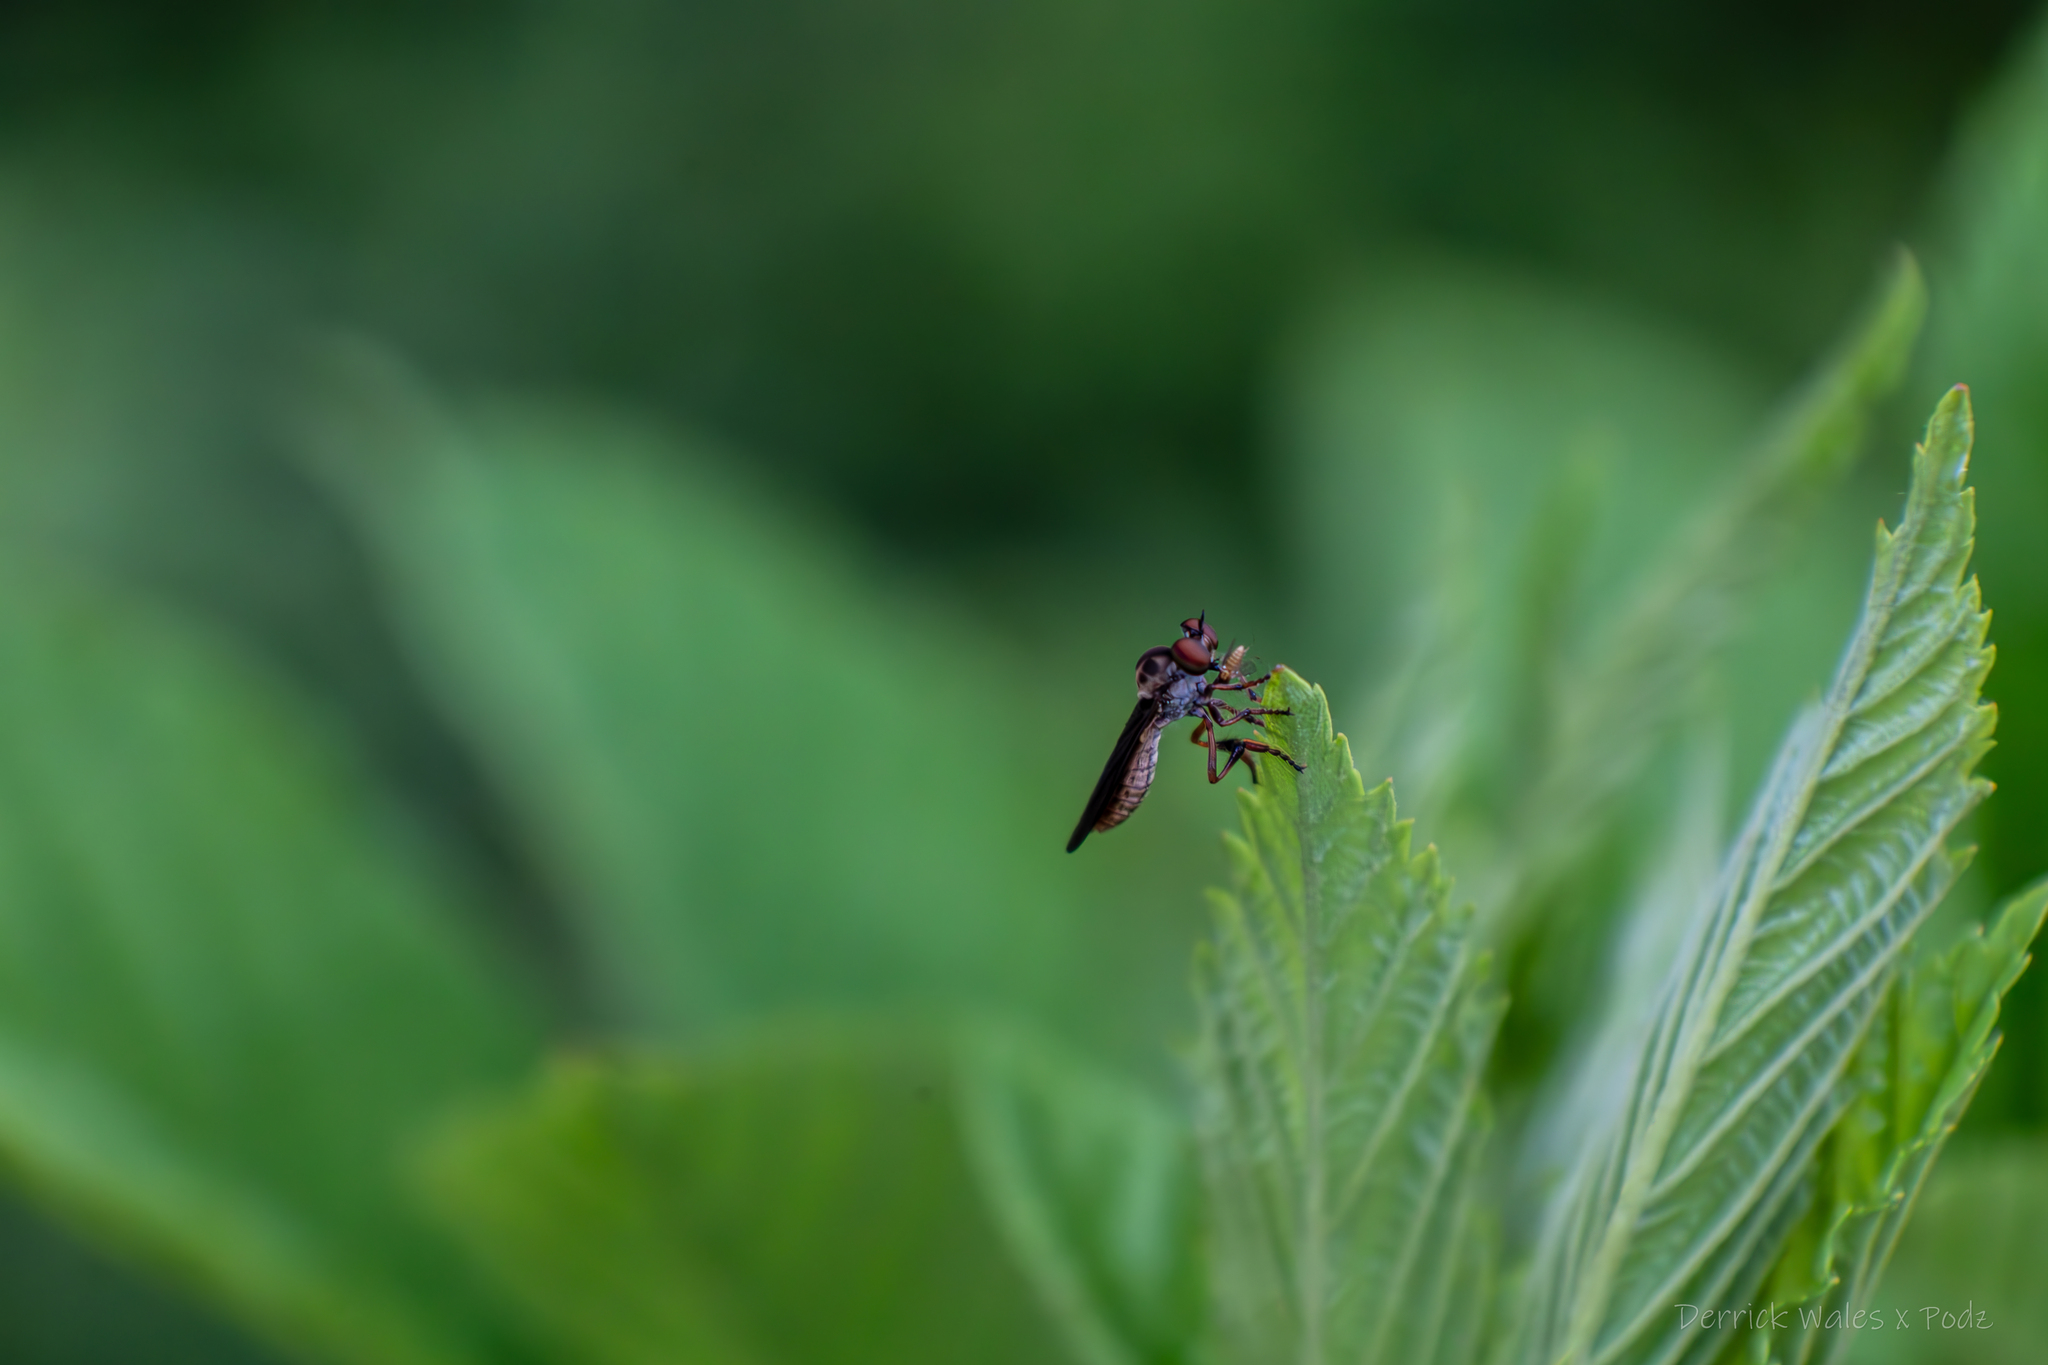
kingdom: Animalia
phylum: Arthropoda
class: Insecta
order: Diptera
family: Asilidae
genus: Holcocephala
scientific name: Holcocephala
